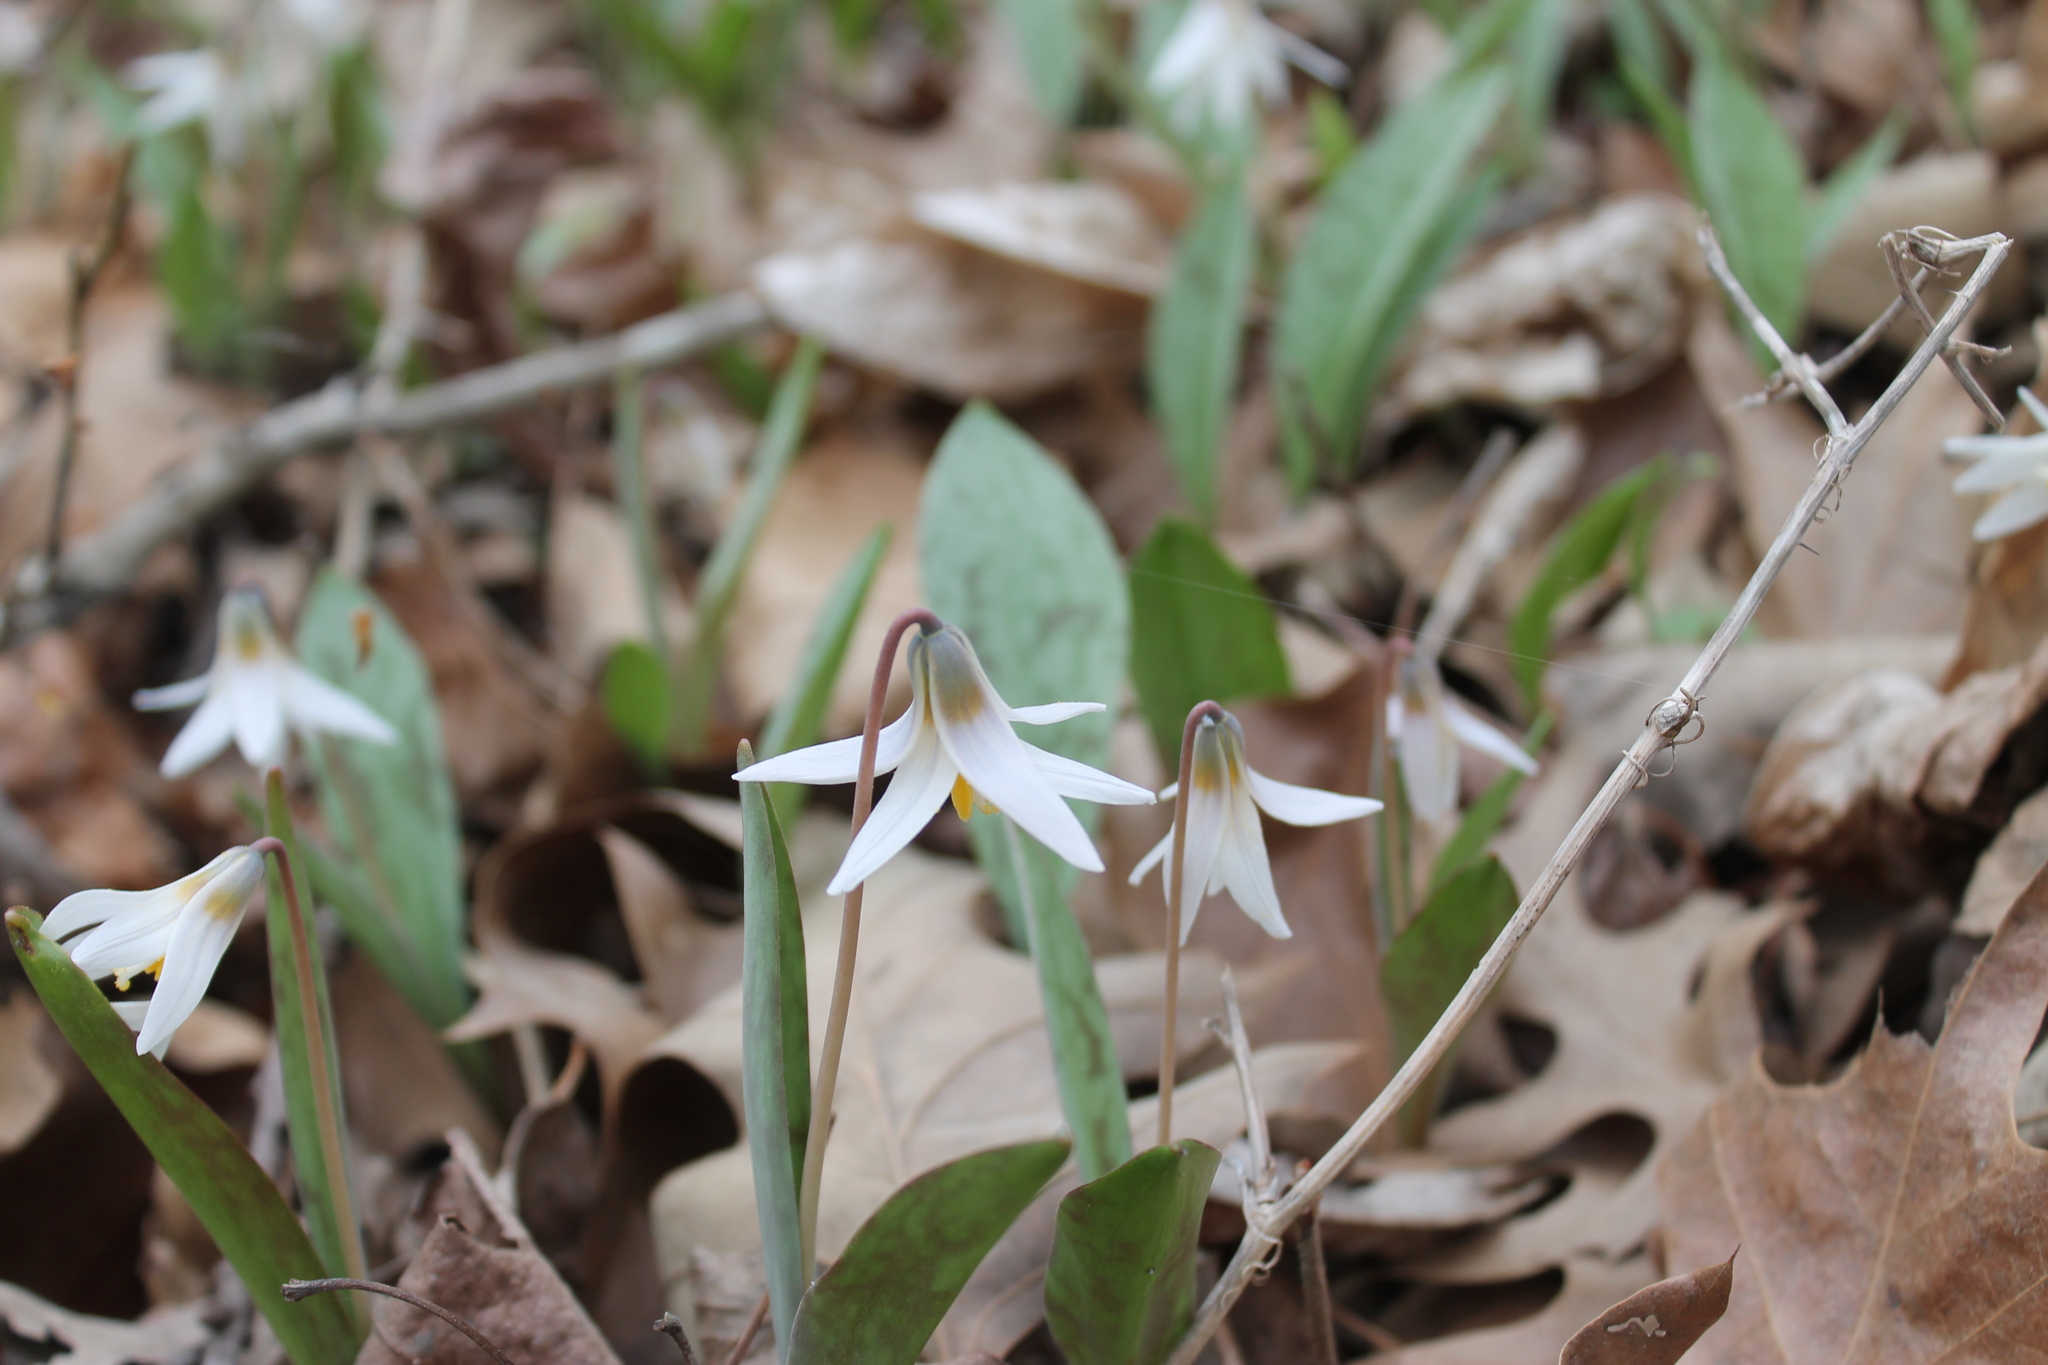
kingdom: Plantae
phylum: Tracheophyta
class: Liliopsida
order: Liliales
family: Liliaceae
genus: Erythronium
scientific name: Erythronium albidum
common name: White trout-lily
